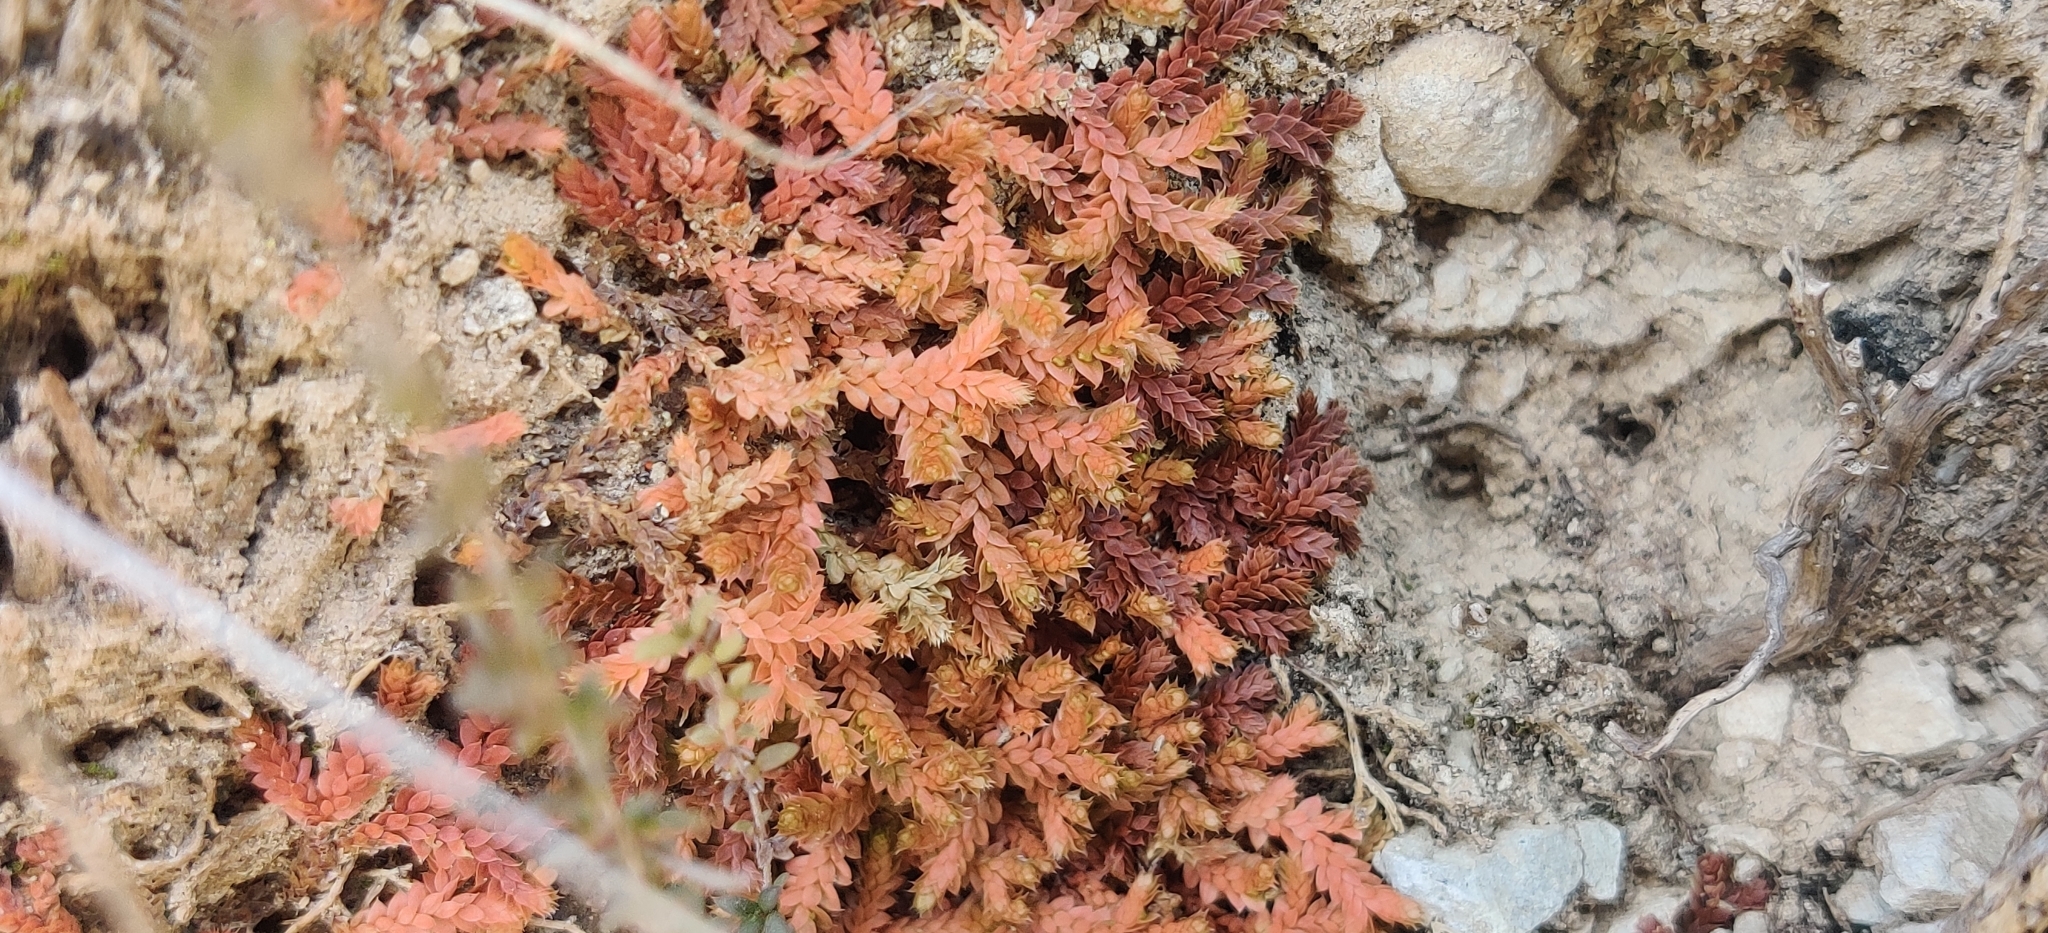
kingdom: Plantae
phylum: Tracheophyta
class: Lycopodiopsida
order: Selaginellales
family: Selaginellaceae
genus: Selaginella
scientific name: Selaginella denticulata
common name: Toothed-leaved clubmoss
